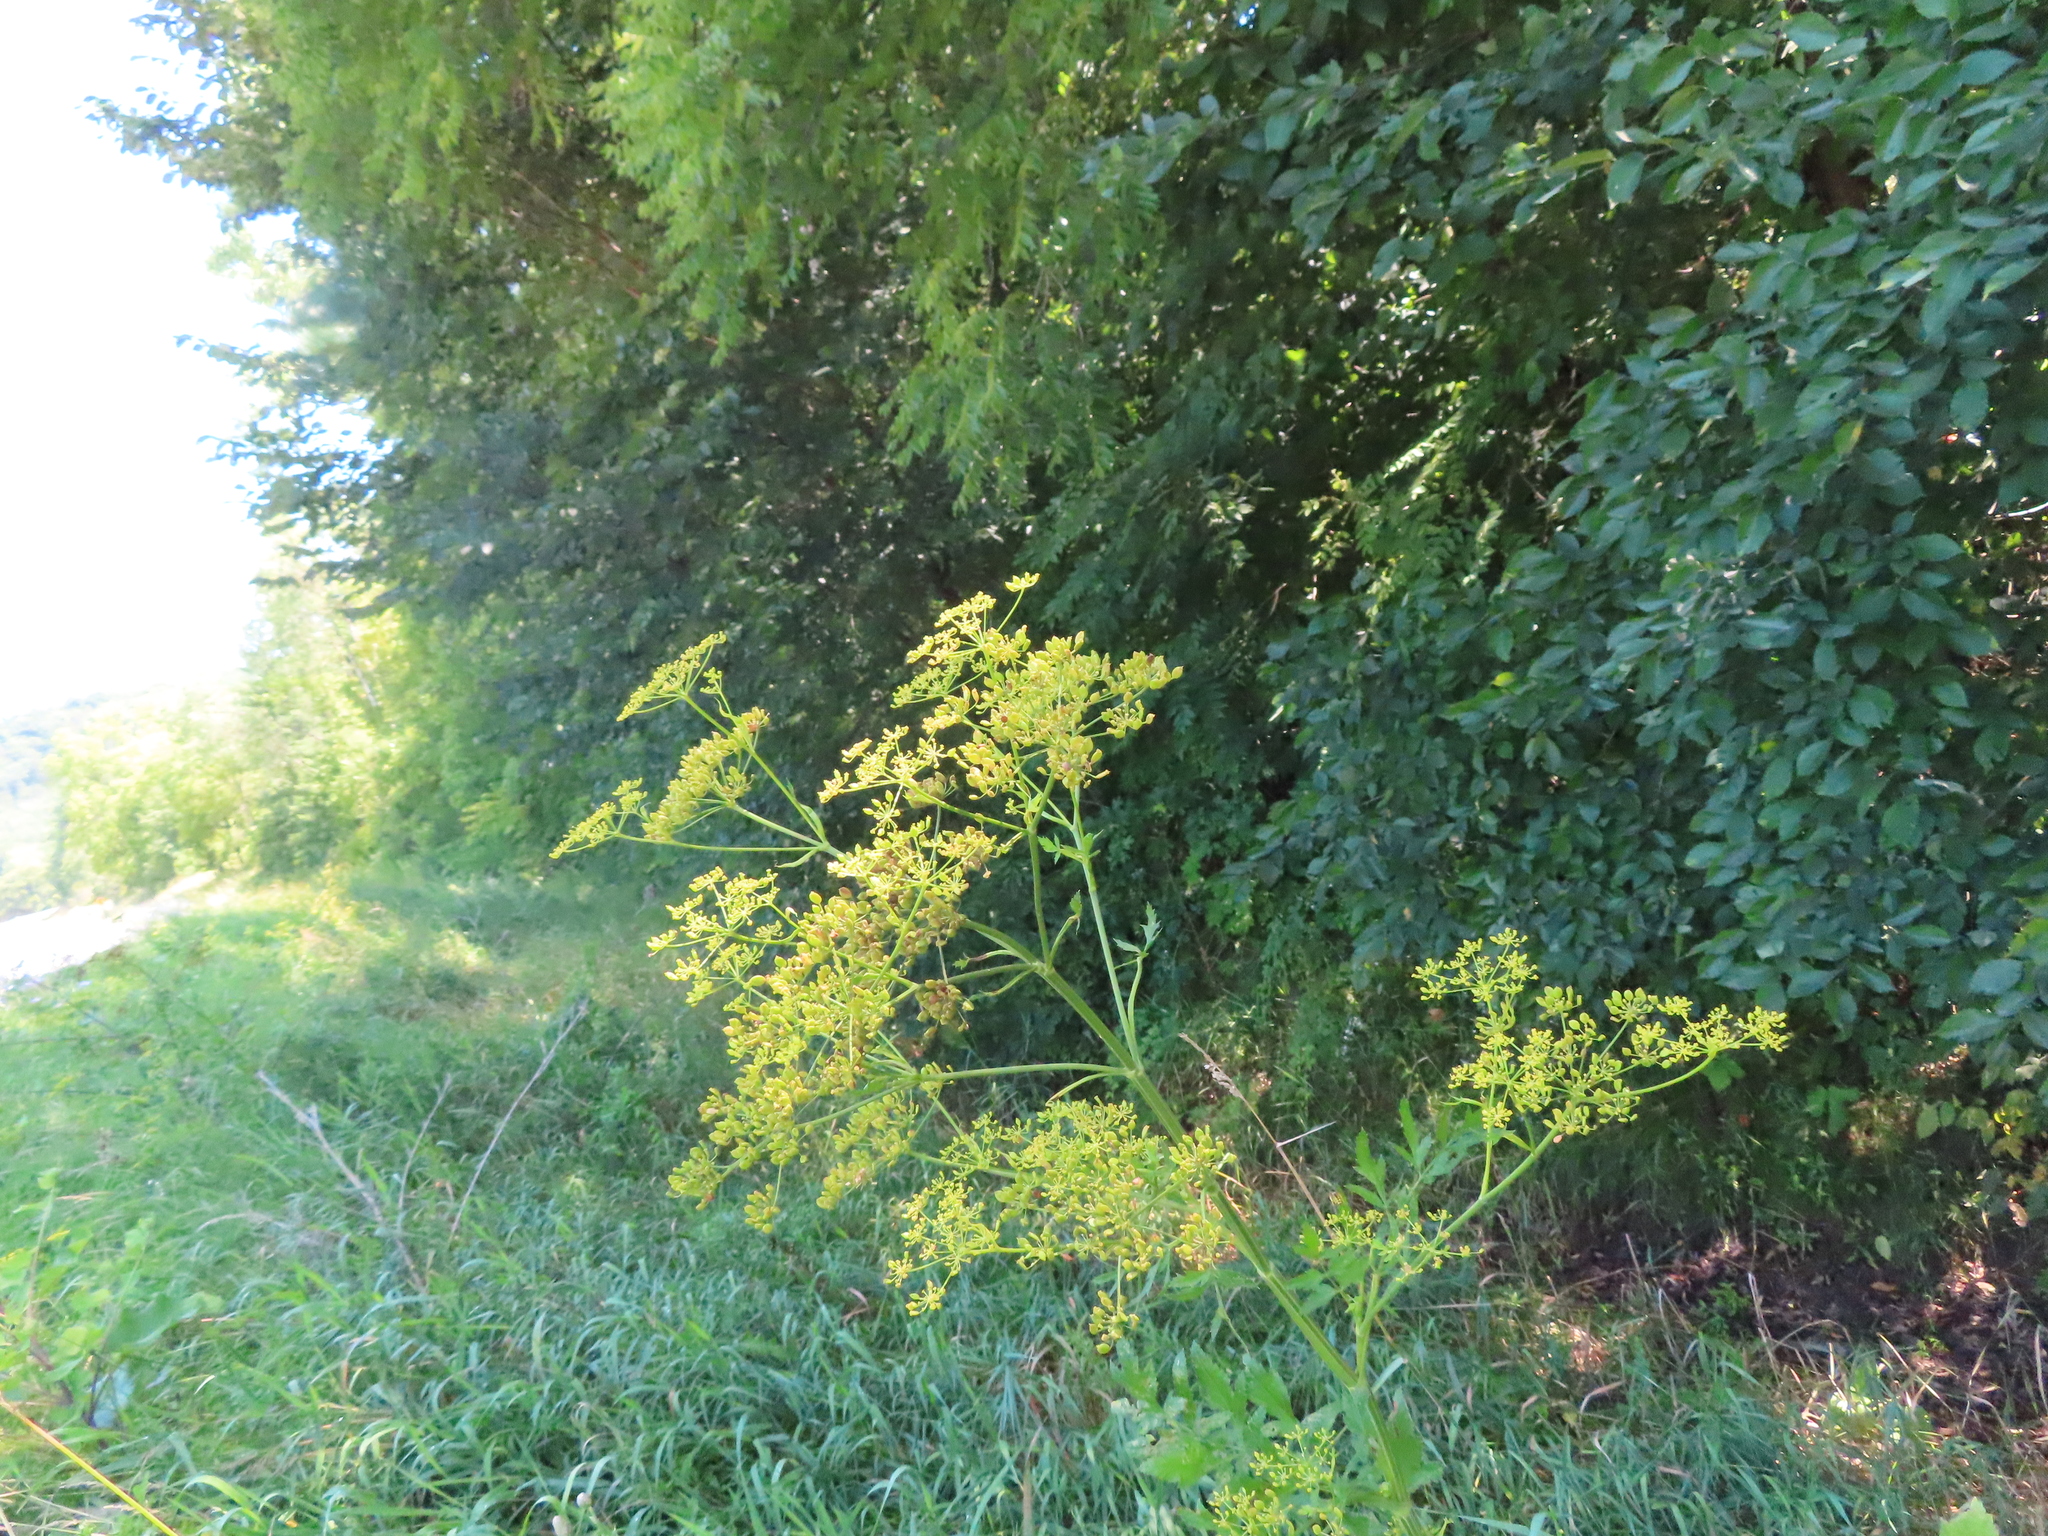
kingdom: Plantae
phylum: Tracheophyta
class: Magnoliopsida
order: Apiales
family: Apiaceae
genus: Pastinaca
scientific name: Pastinaca sativa
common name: Wild parsnip
